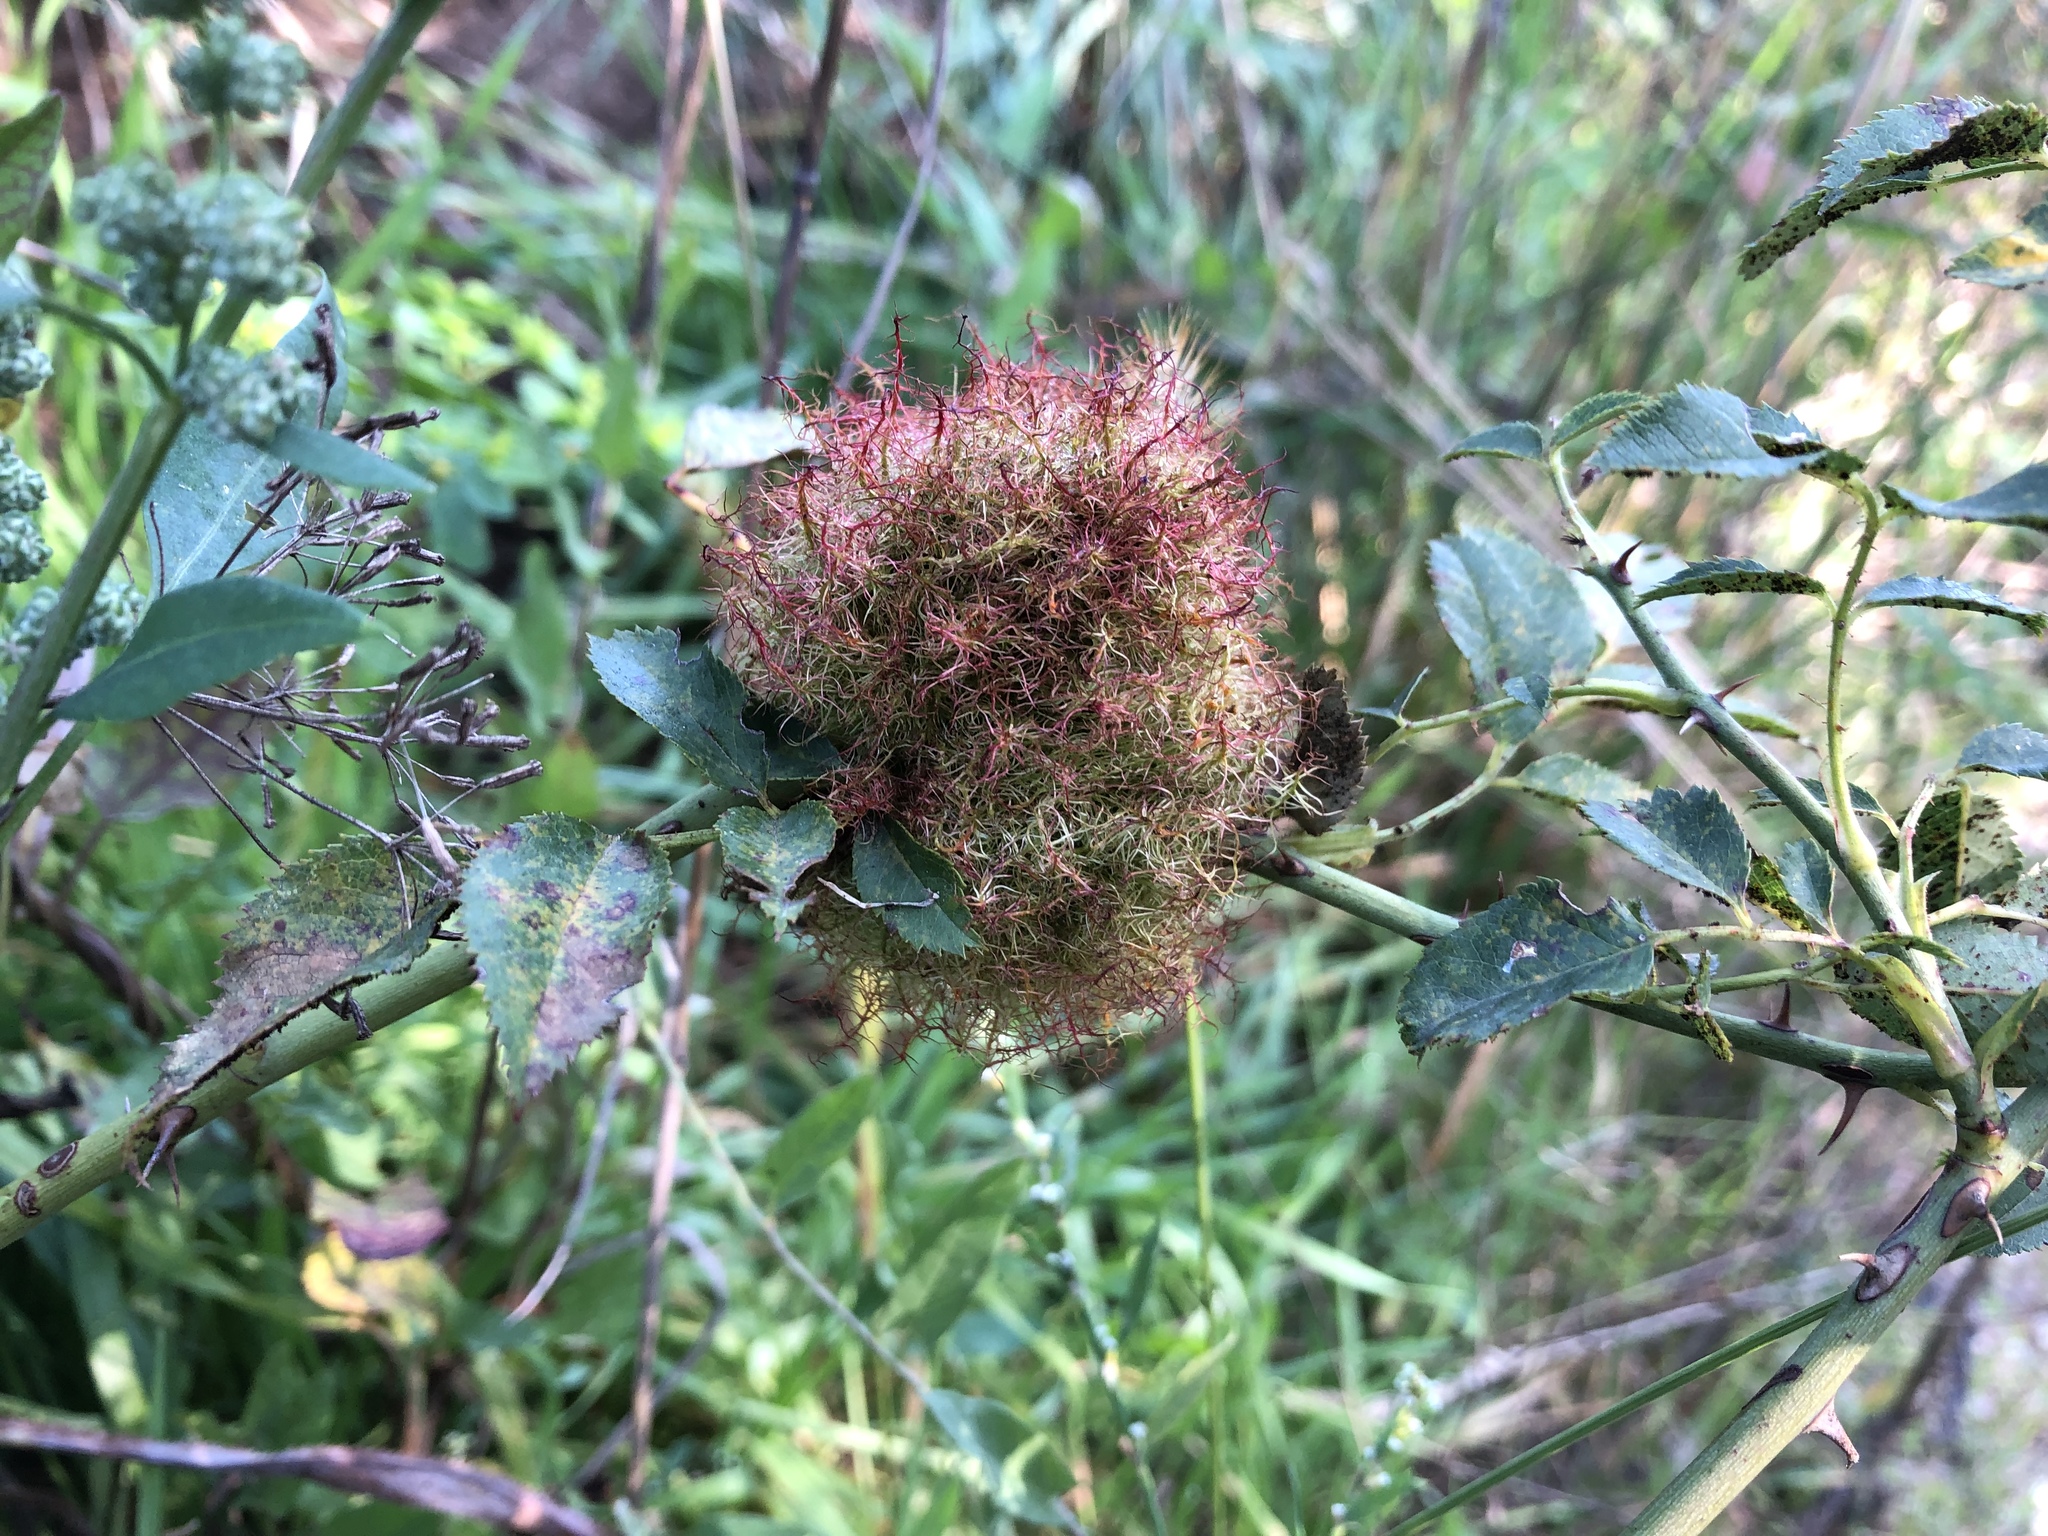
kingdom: Animalia
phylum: Arthropoda
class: Insecta
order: Hymenoptera
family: Cynipidae
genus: Diplolepis
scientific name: Diplolepis rosae
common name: Bedeguar gall
